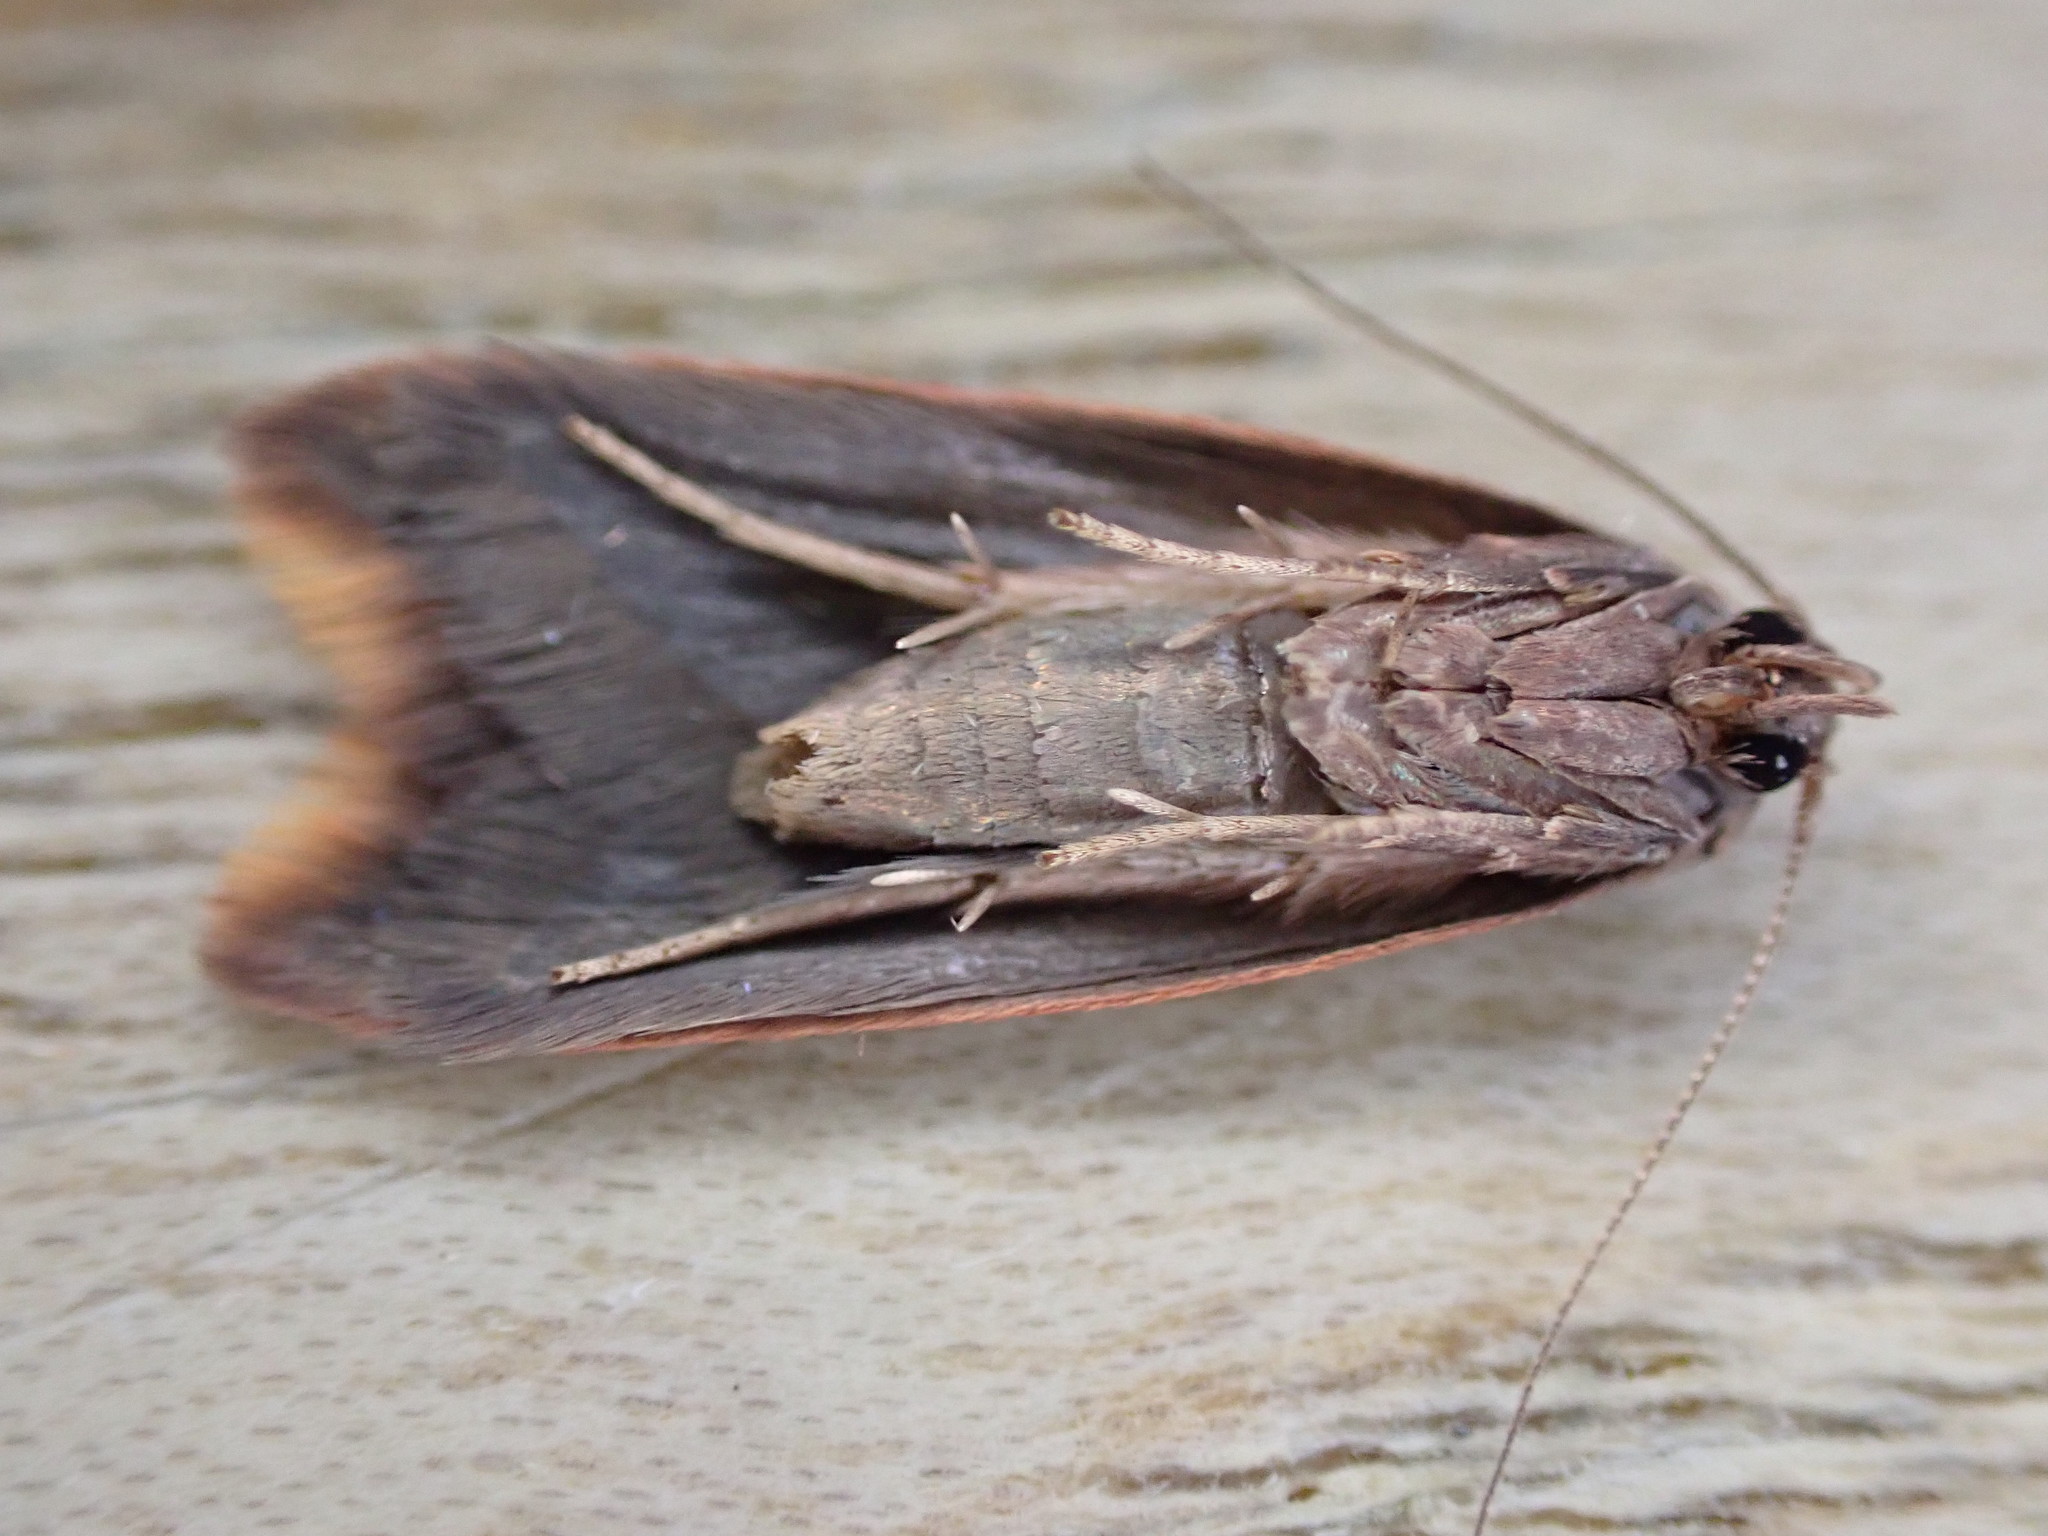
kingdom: Animalia
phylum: Arthropoda
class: Insecta
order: Lepidoptera
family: Oecophoridae
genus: Tachystola
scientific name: Tachystola acroxantha
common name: Ruddy streak
